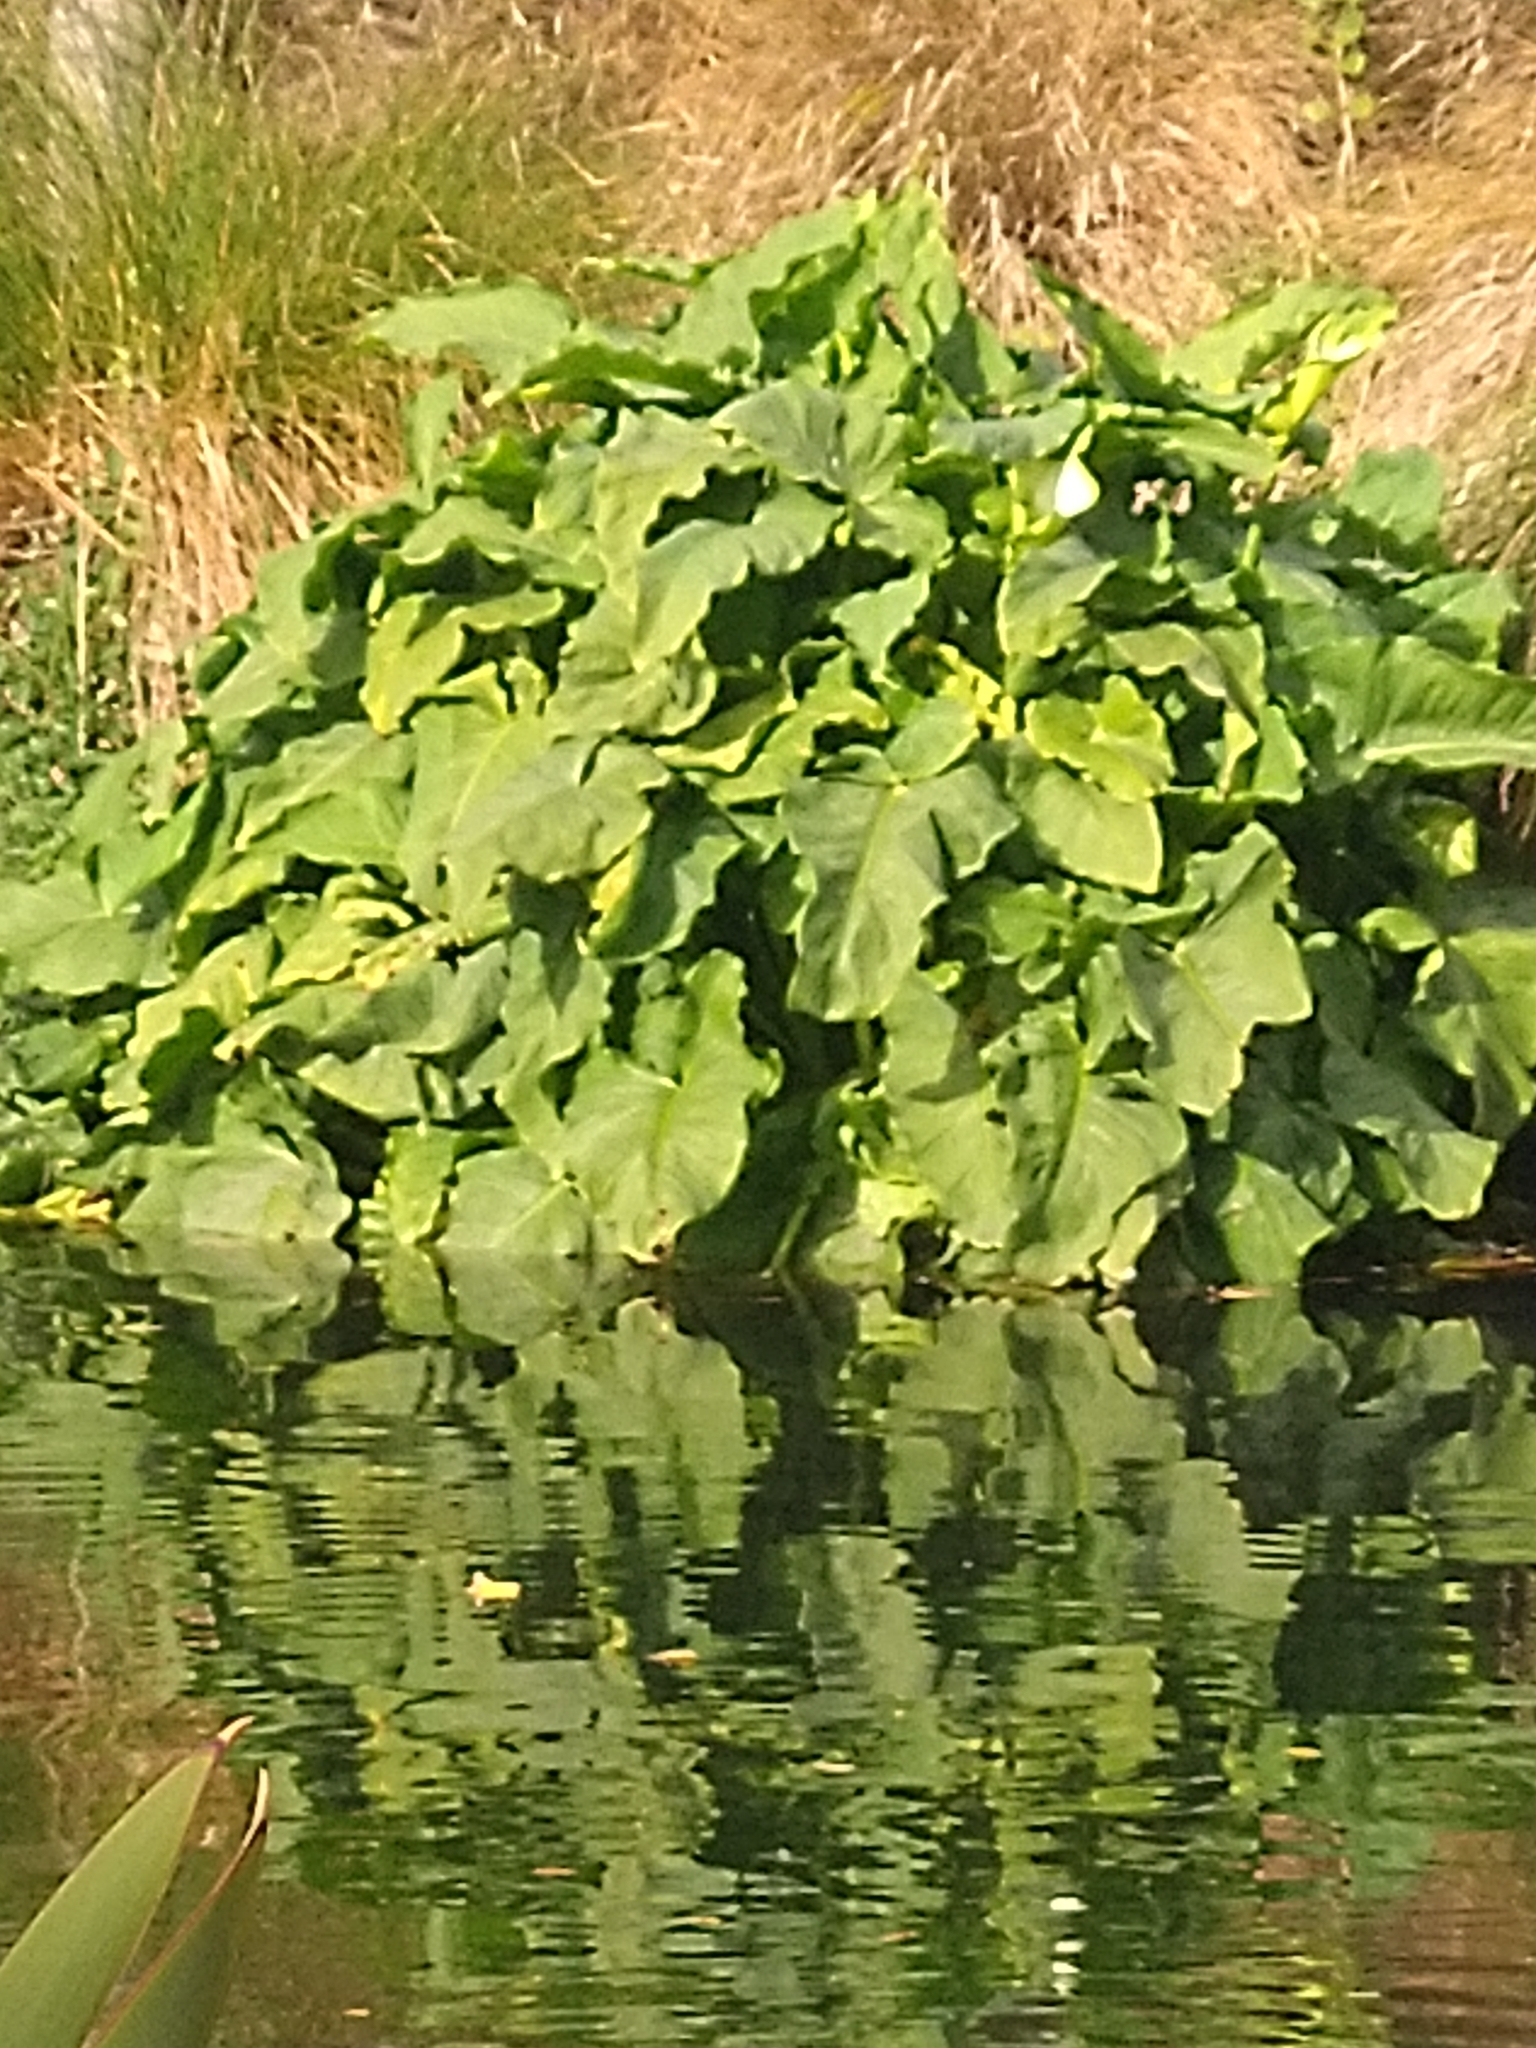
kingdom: Plantae
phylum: Tracheophyta
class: Liliopsida
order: Alismatales
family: Araceae
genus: Zantedeschia
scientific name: Zantedeschia aethiopica
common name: Altar-lily
